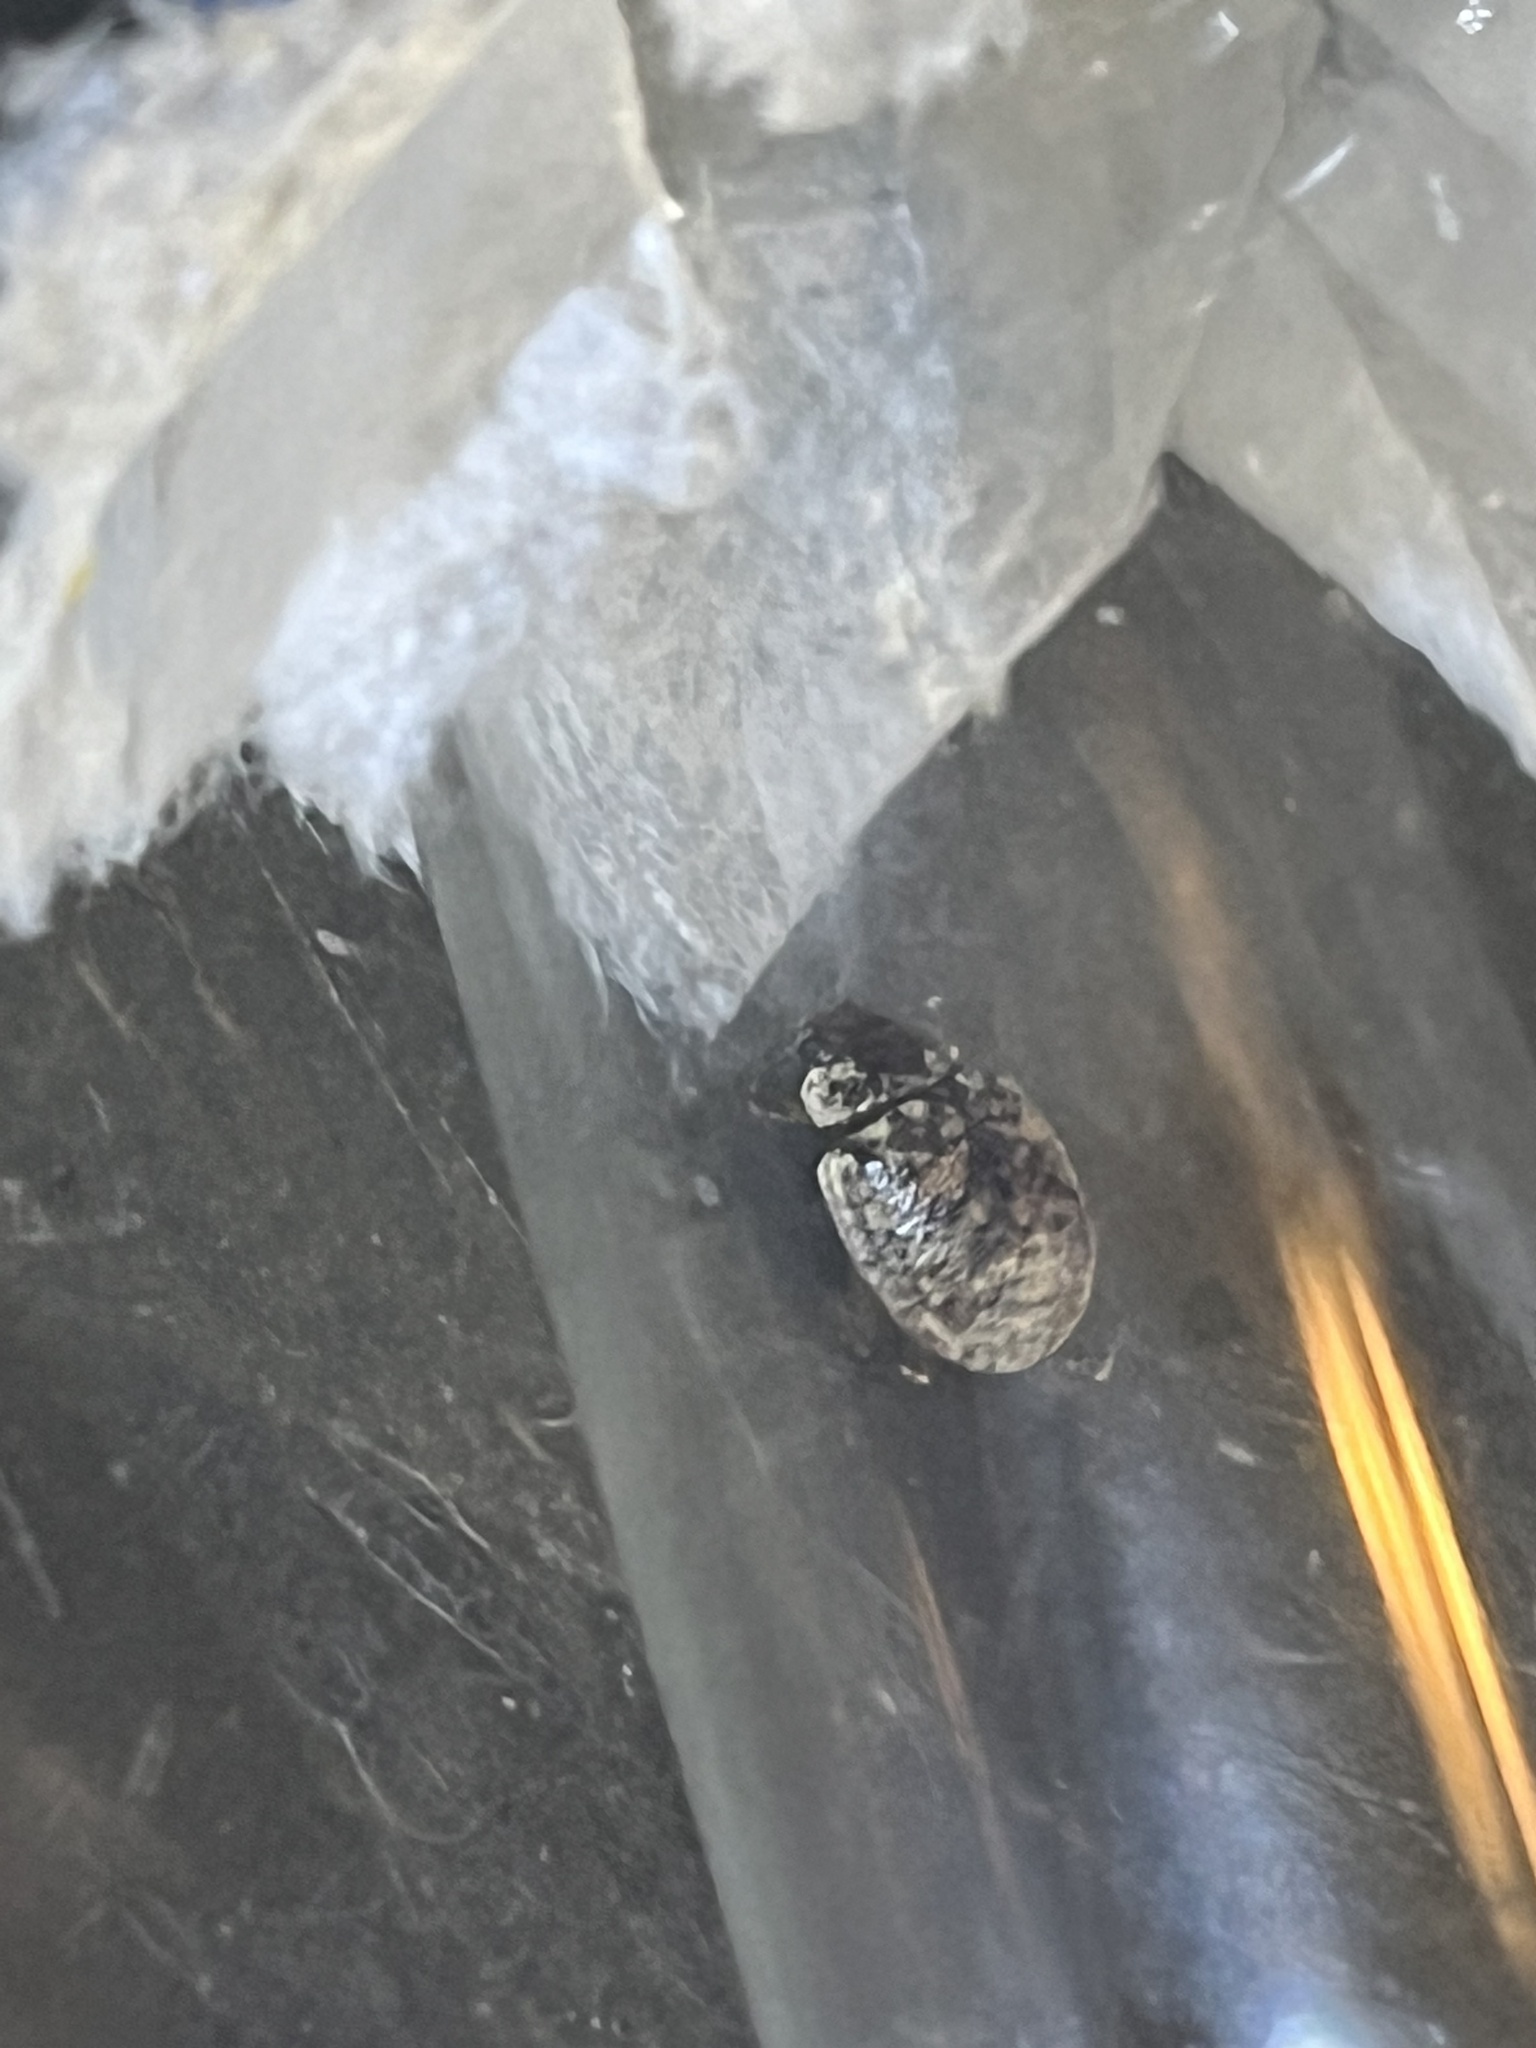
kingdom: Animalia
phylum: Arthropoda
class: Insecta
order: Coleoptera
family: Chrysomelidae
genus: Trachymela
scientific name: Trachymela sloanei
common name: Australian tortoise beetle
